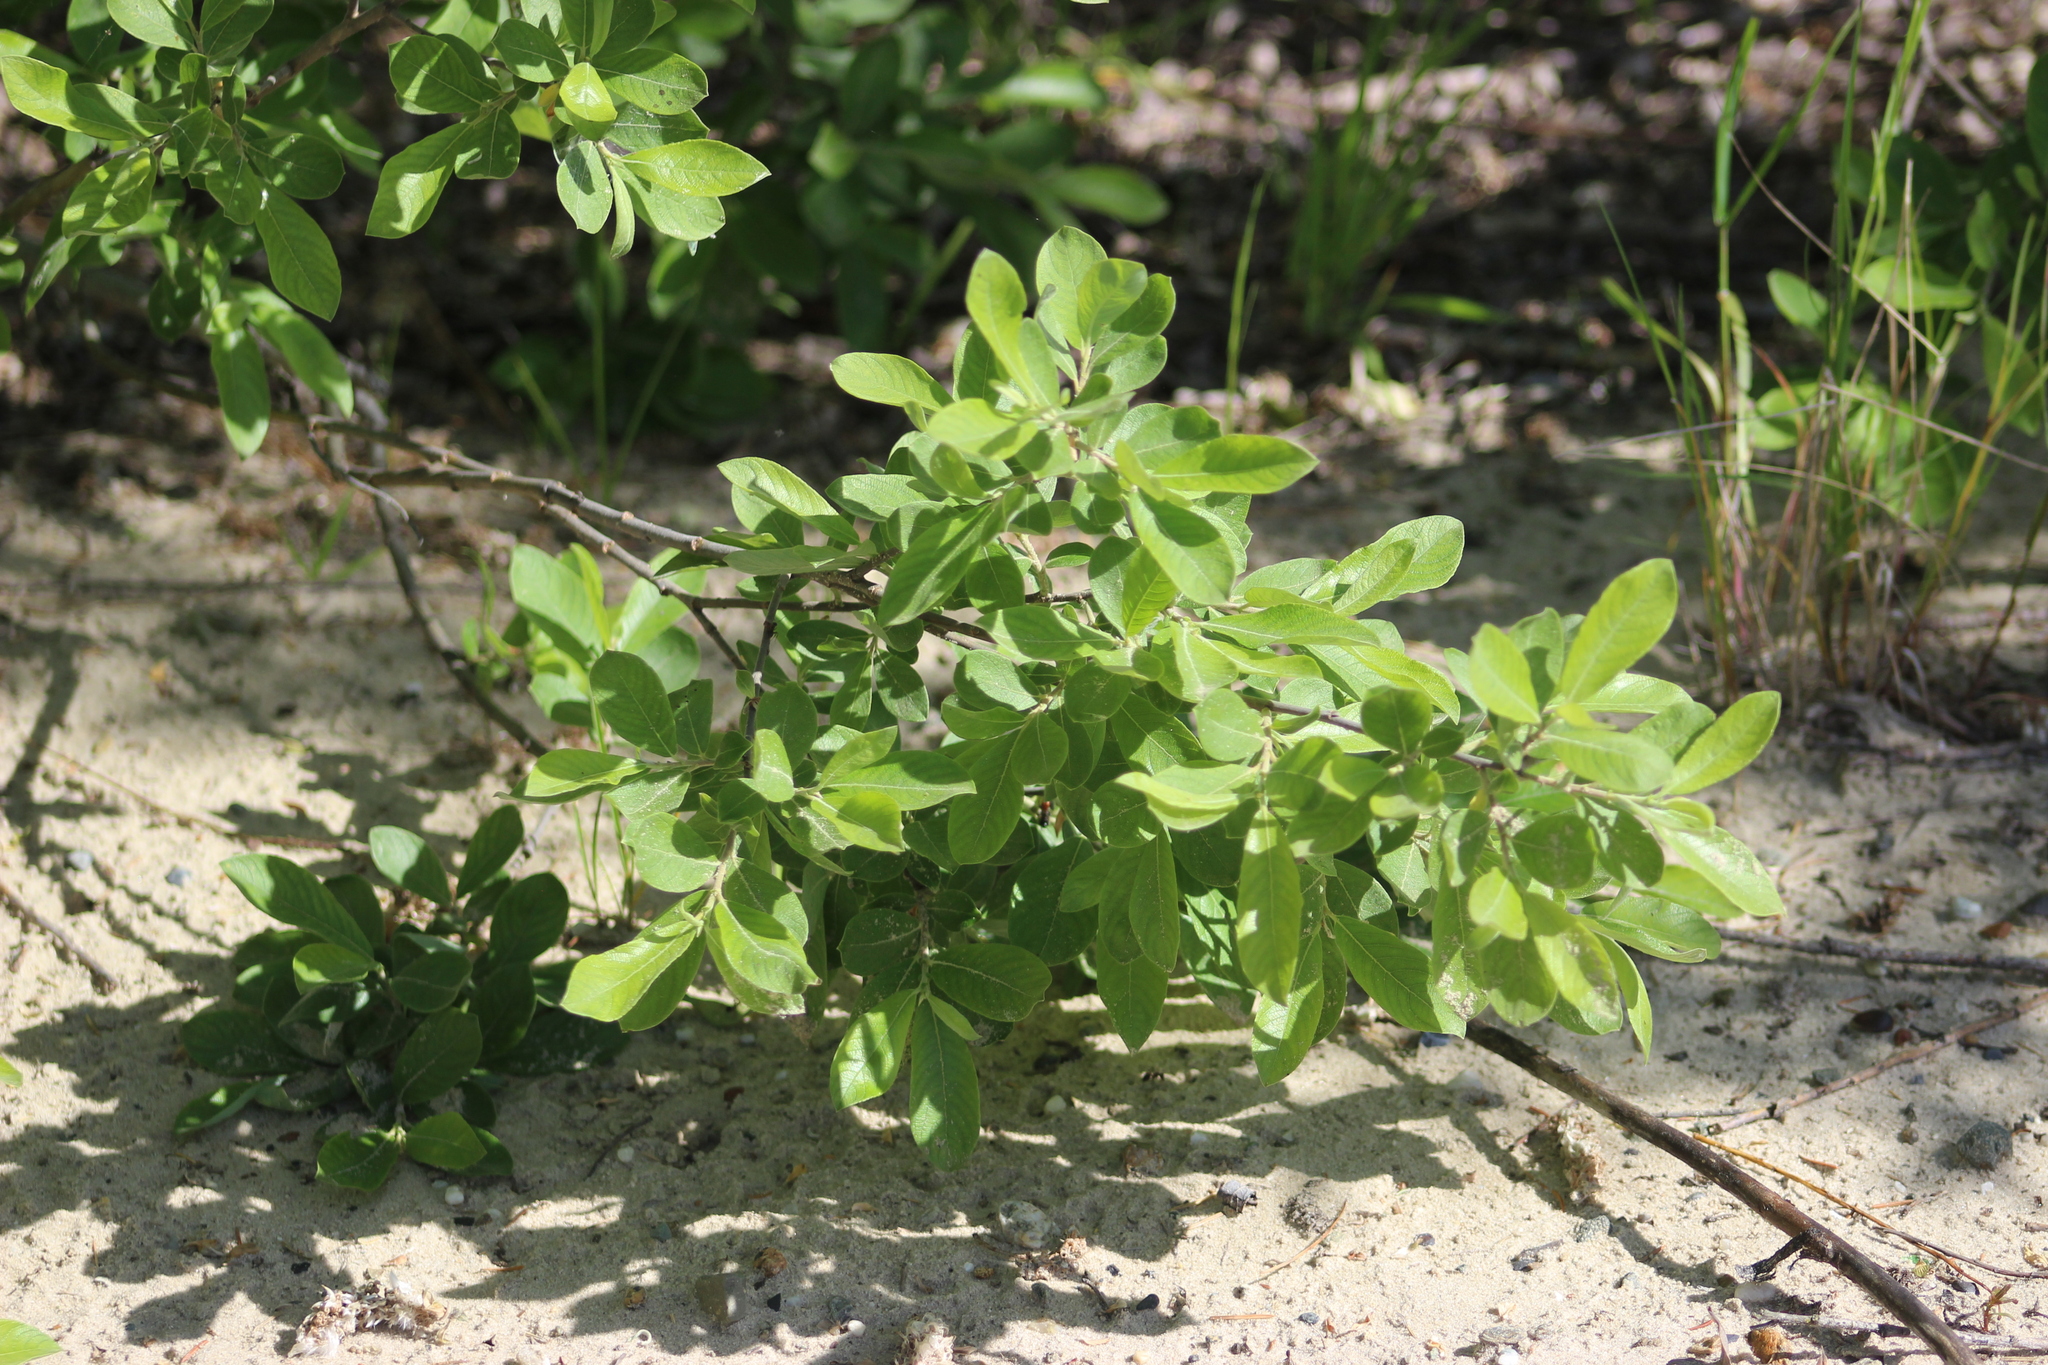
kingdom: Plantae
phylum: Tracheophyta
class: Magnoliopsida
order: Malpighiales
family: Salicaceae
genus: Salix
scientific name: Salix cinerea
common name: Common sallow
